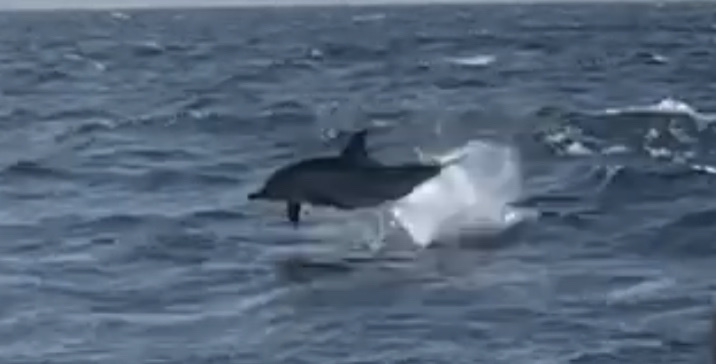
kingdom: Animalia
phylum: Chordata
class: Mammalia
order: Cetacea
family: Delphinidae
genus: Delphinus
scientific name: Delphinus delphis
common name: Common dolphin
